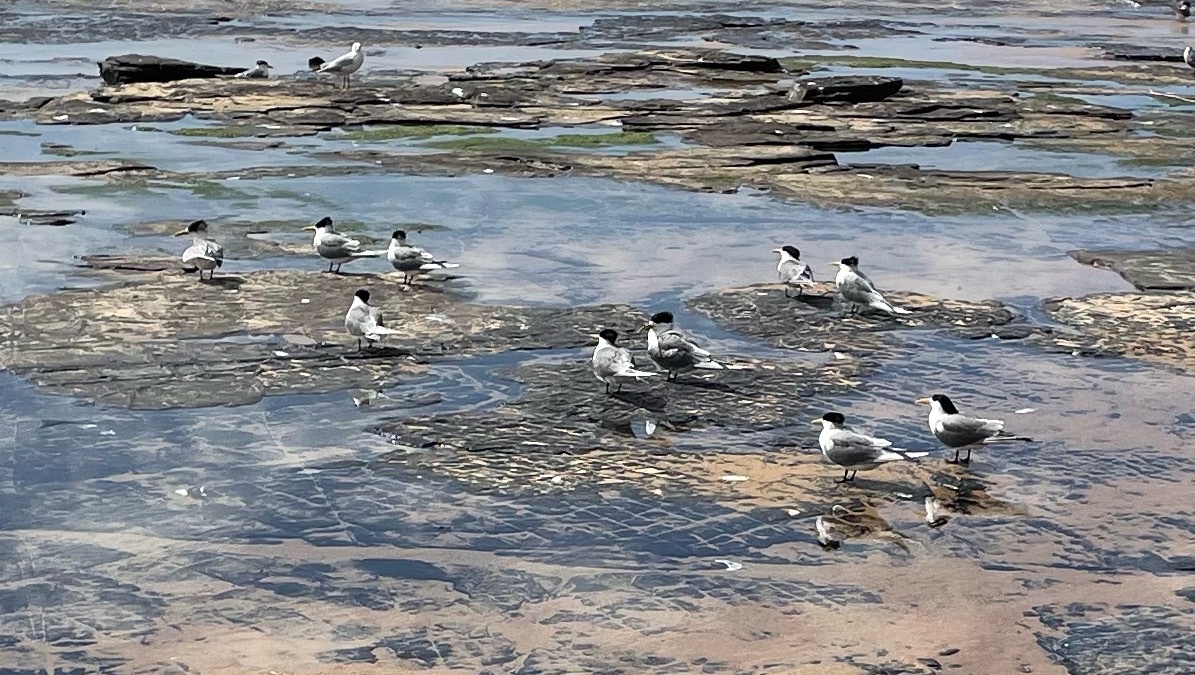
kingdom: Animalia
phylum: Chordata
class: Aves
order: Charadriiformes
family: Laridae
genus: Thalasseus
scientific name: Thalasseus bergii
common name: Greater crested tern
